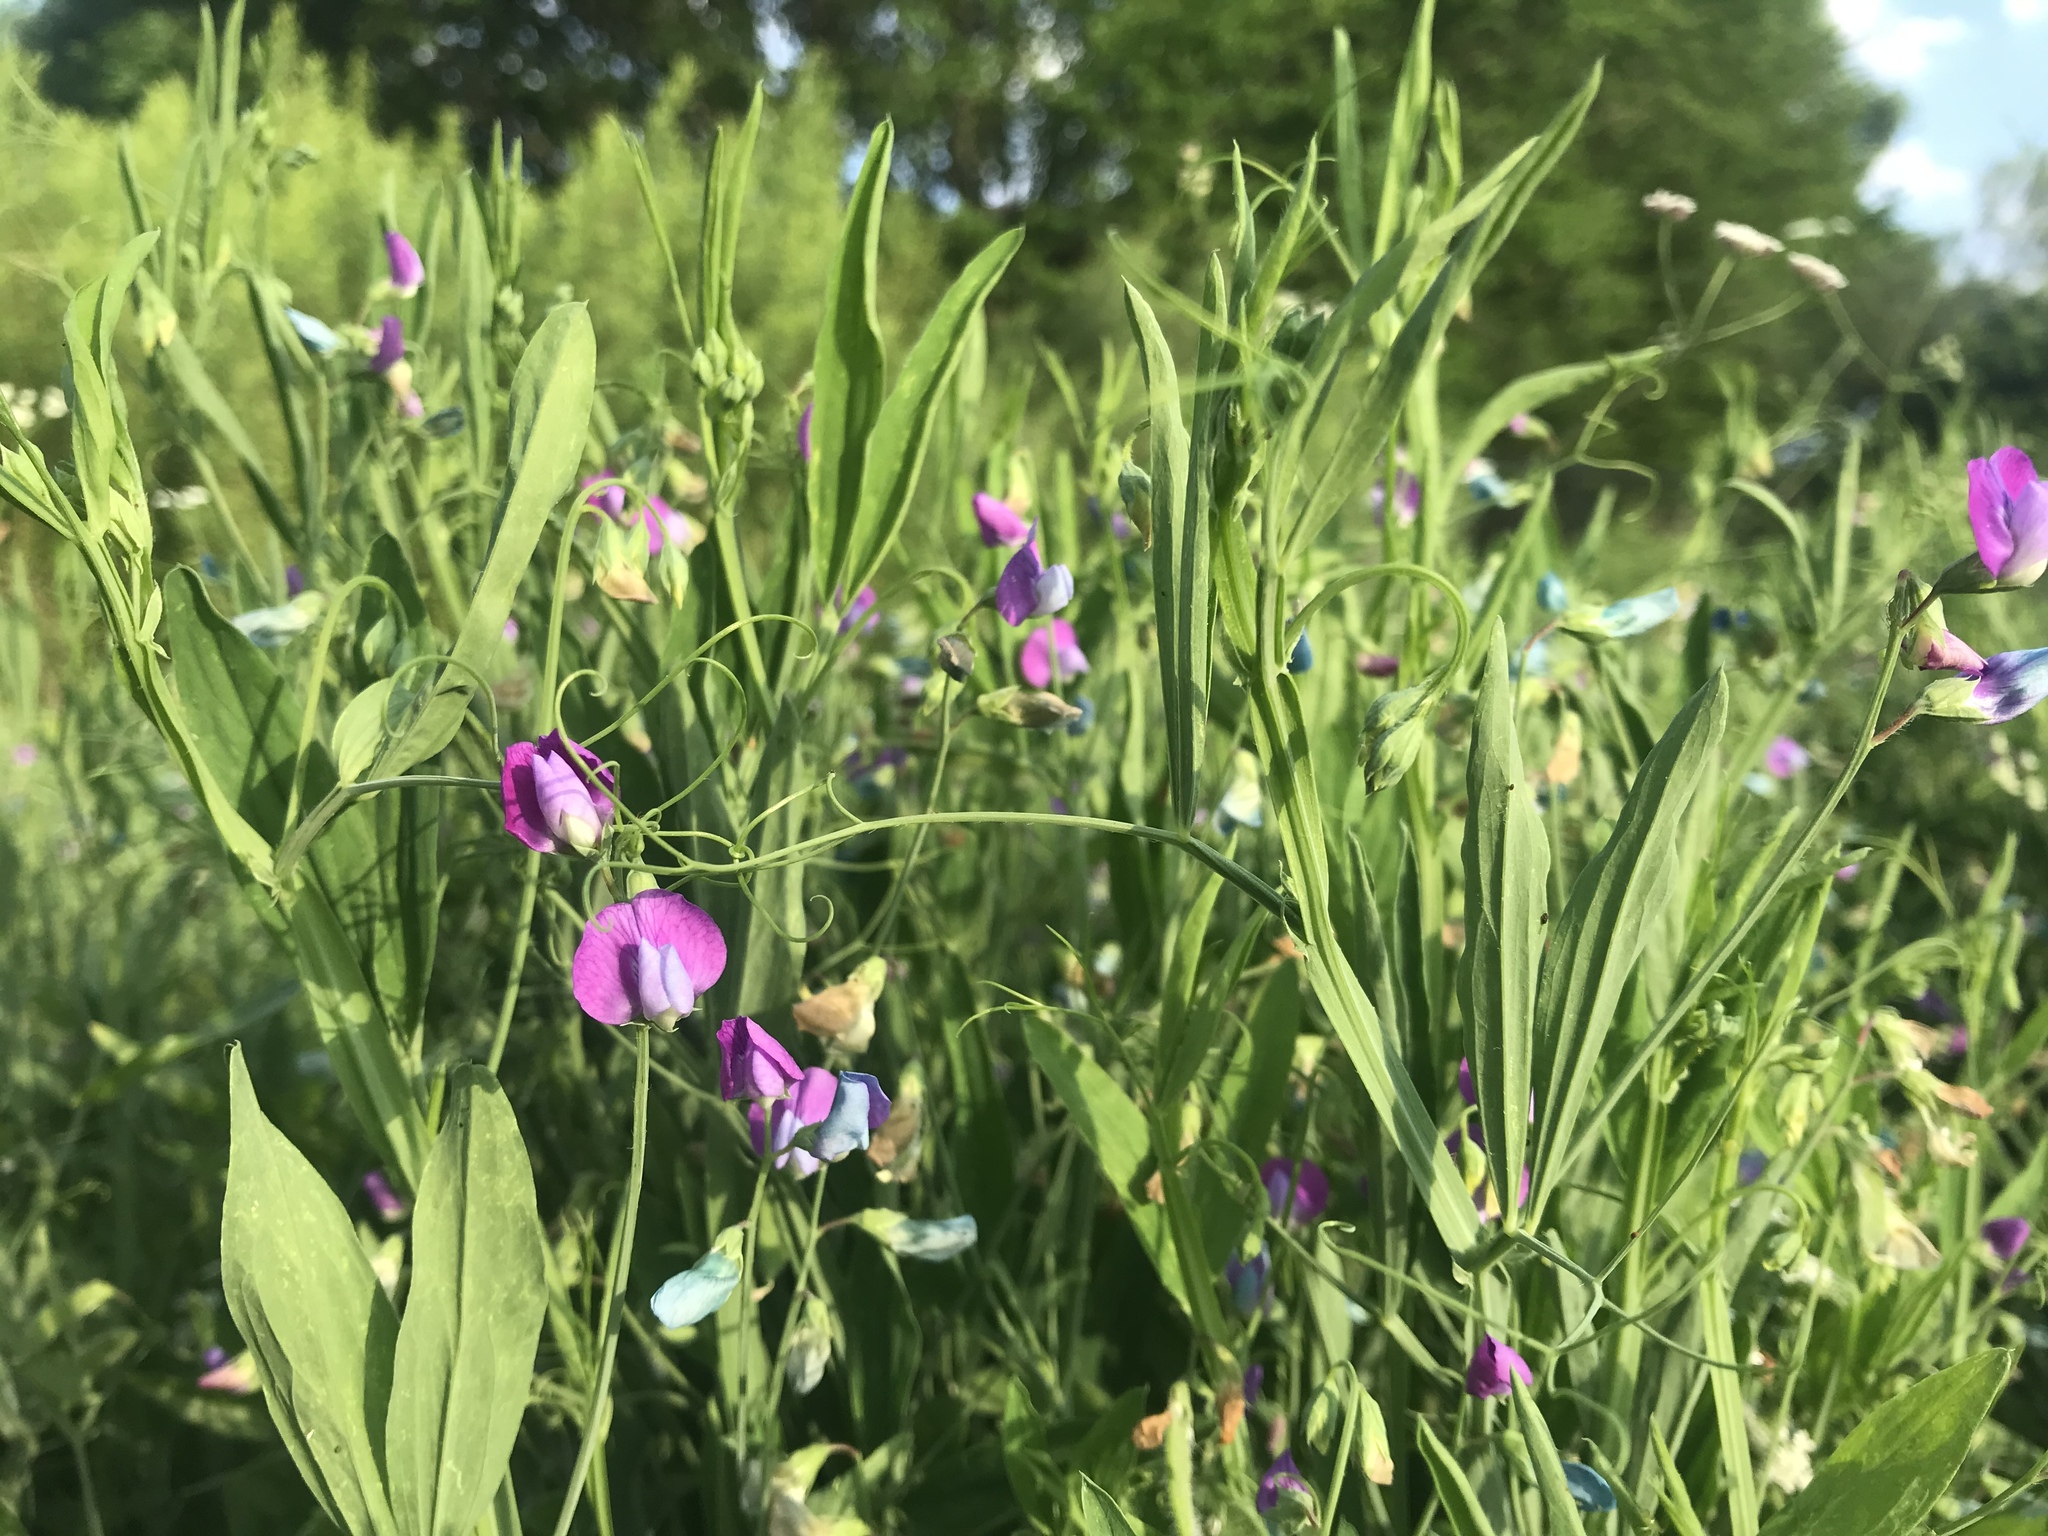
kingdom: Plantae
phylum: Tracheophyta
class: Magnoliopsida
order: Fabales
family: Fabaceae
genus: Lathyrus
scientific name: Lathyrus hirsutus
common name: Hairy vetchling
